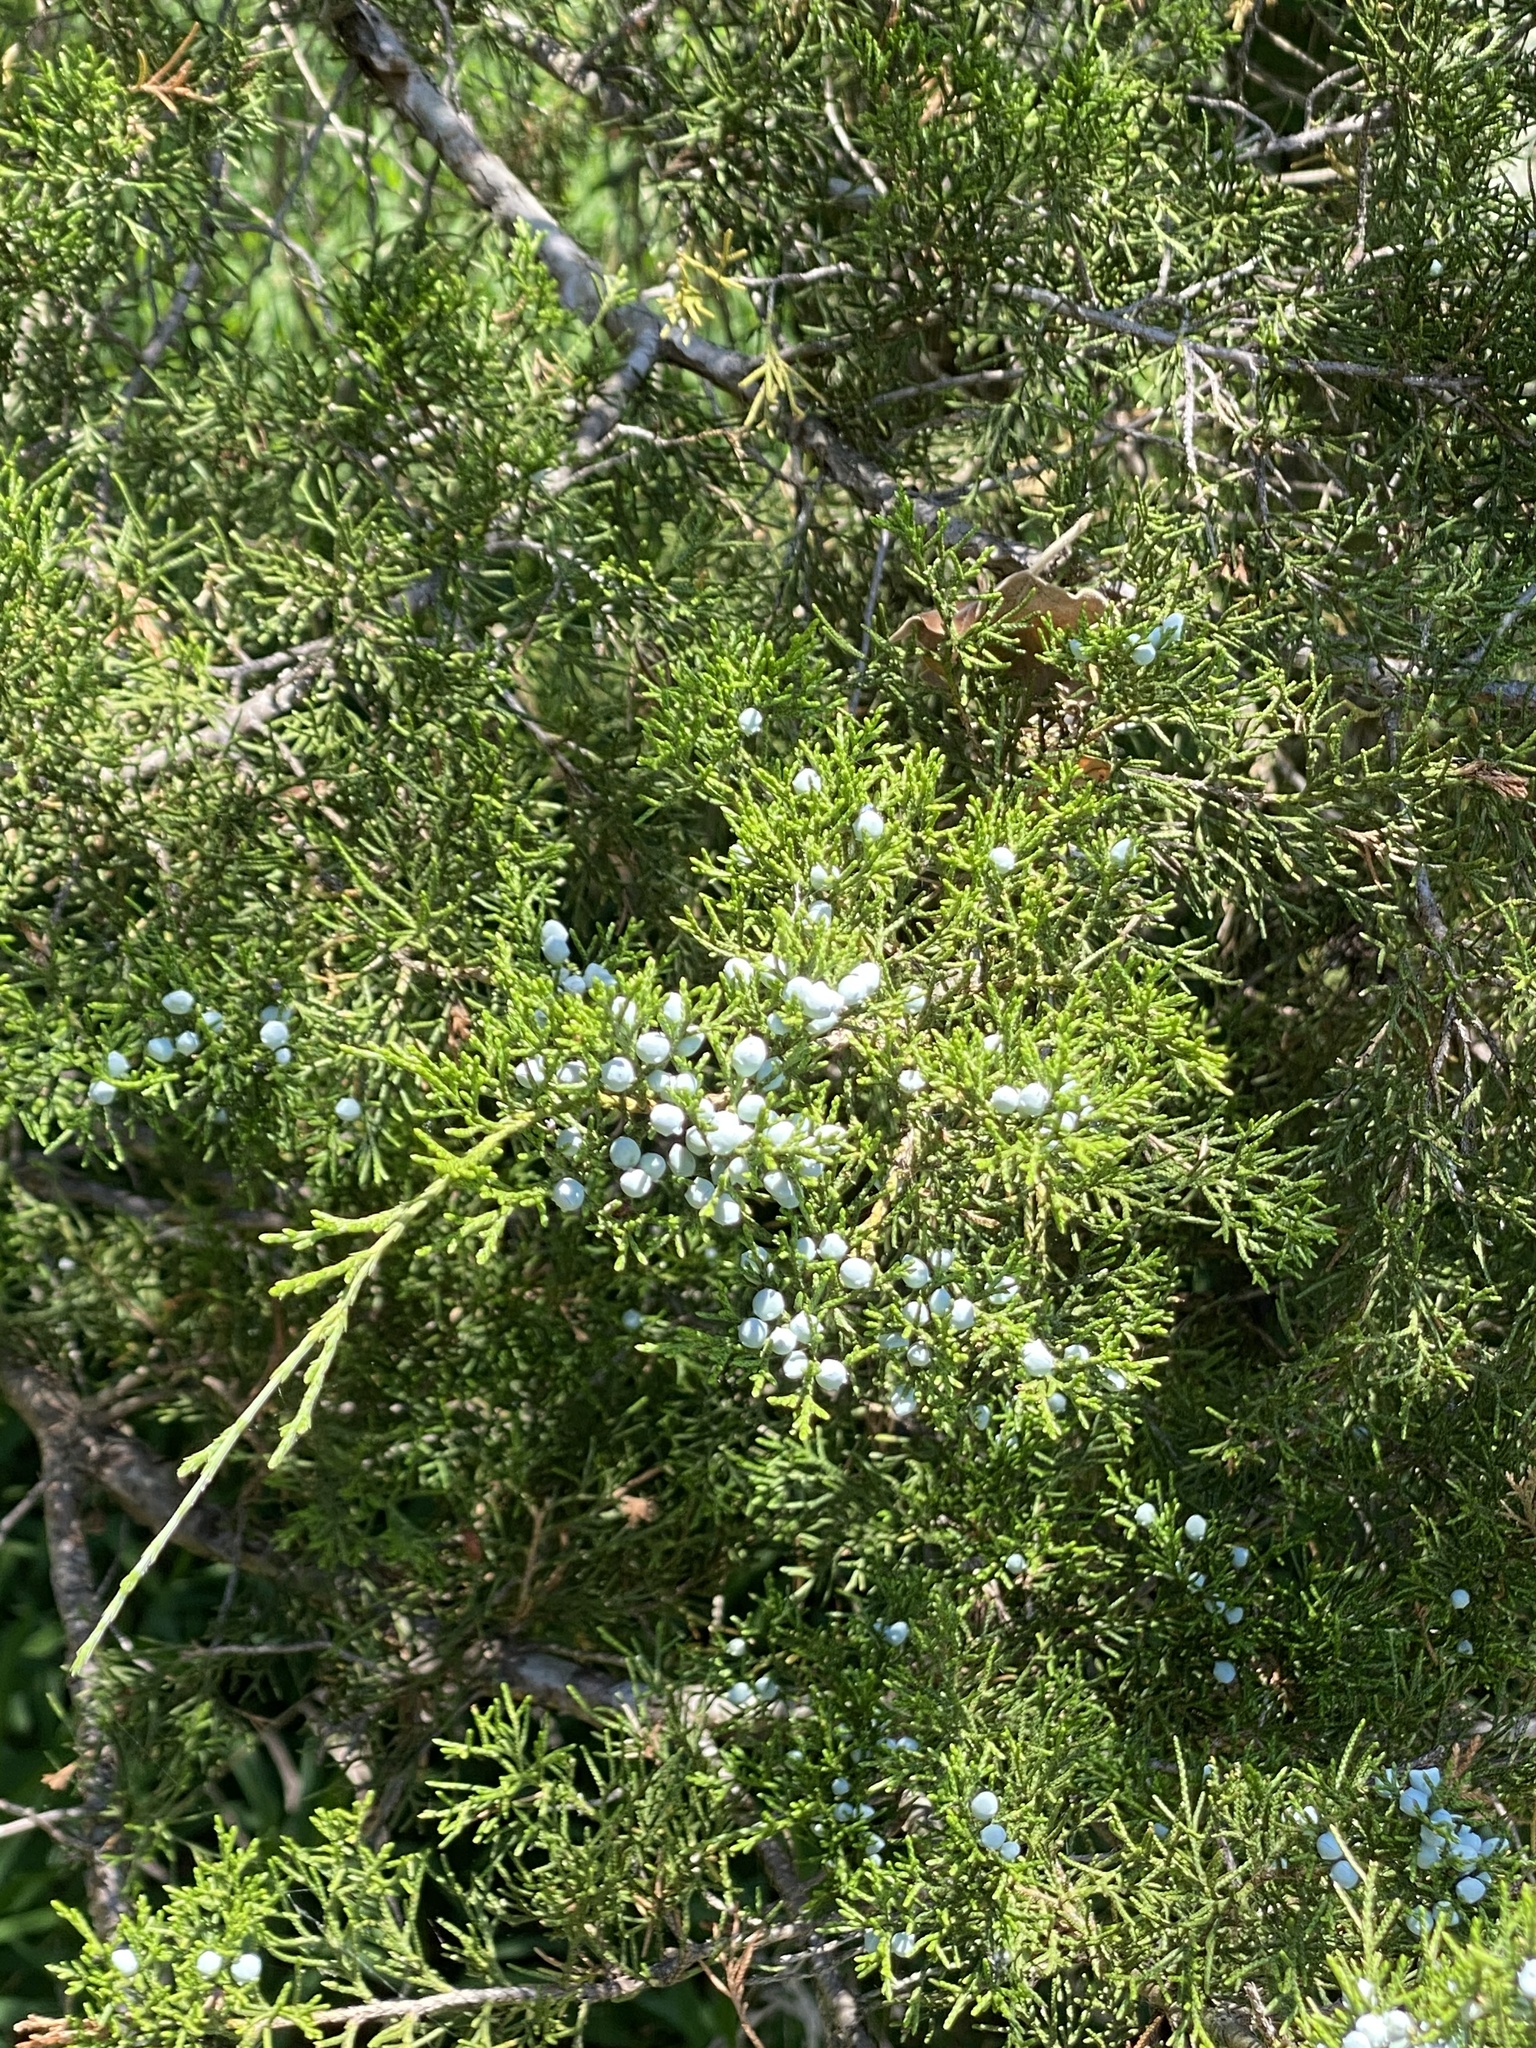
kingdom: Plantae
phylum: Tracheophyta
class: Pinopsida
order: Pinales
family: Cupressaceae
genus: Juniperus
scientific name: Juniperus virginiana
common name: Red juniper
